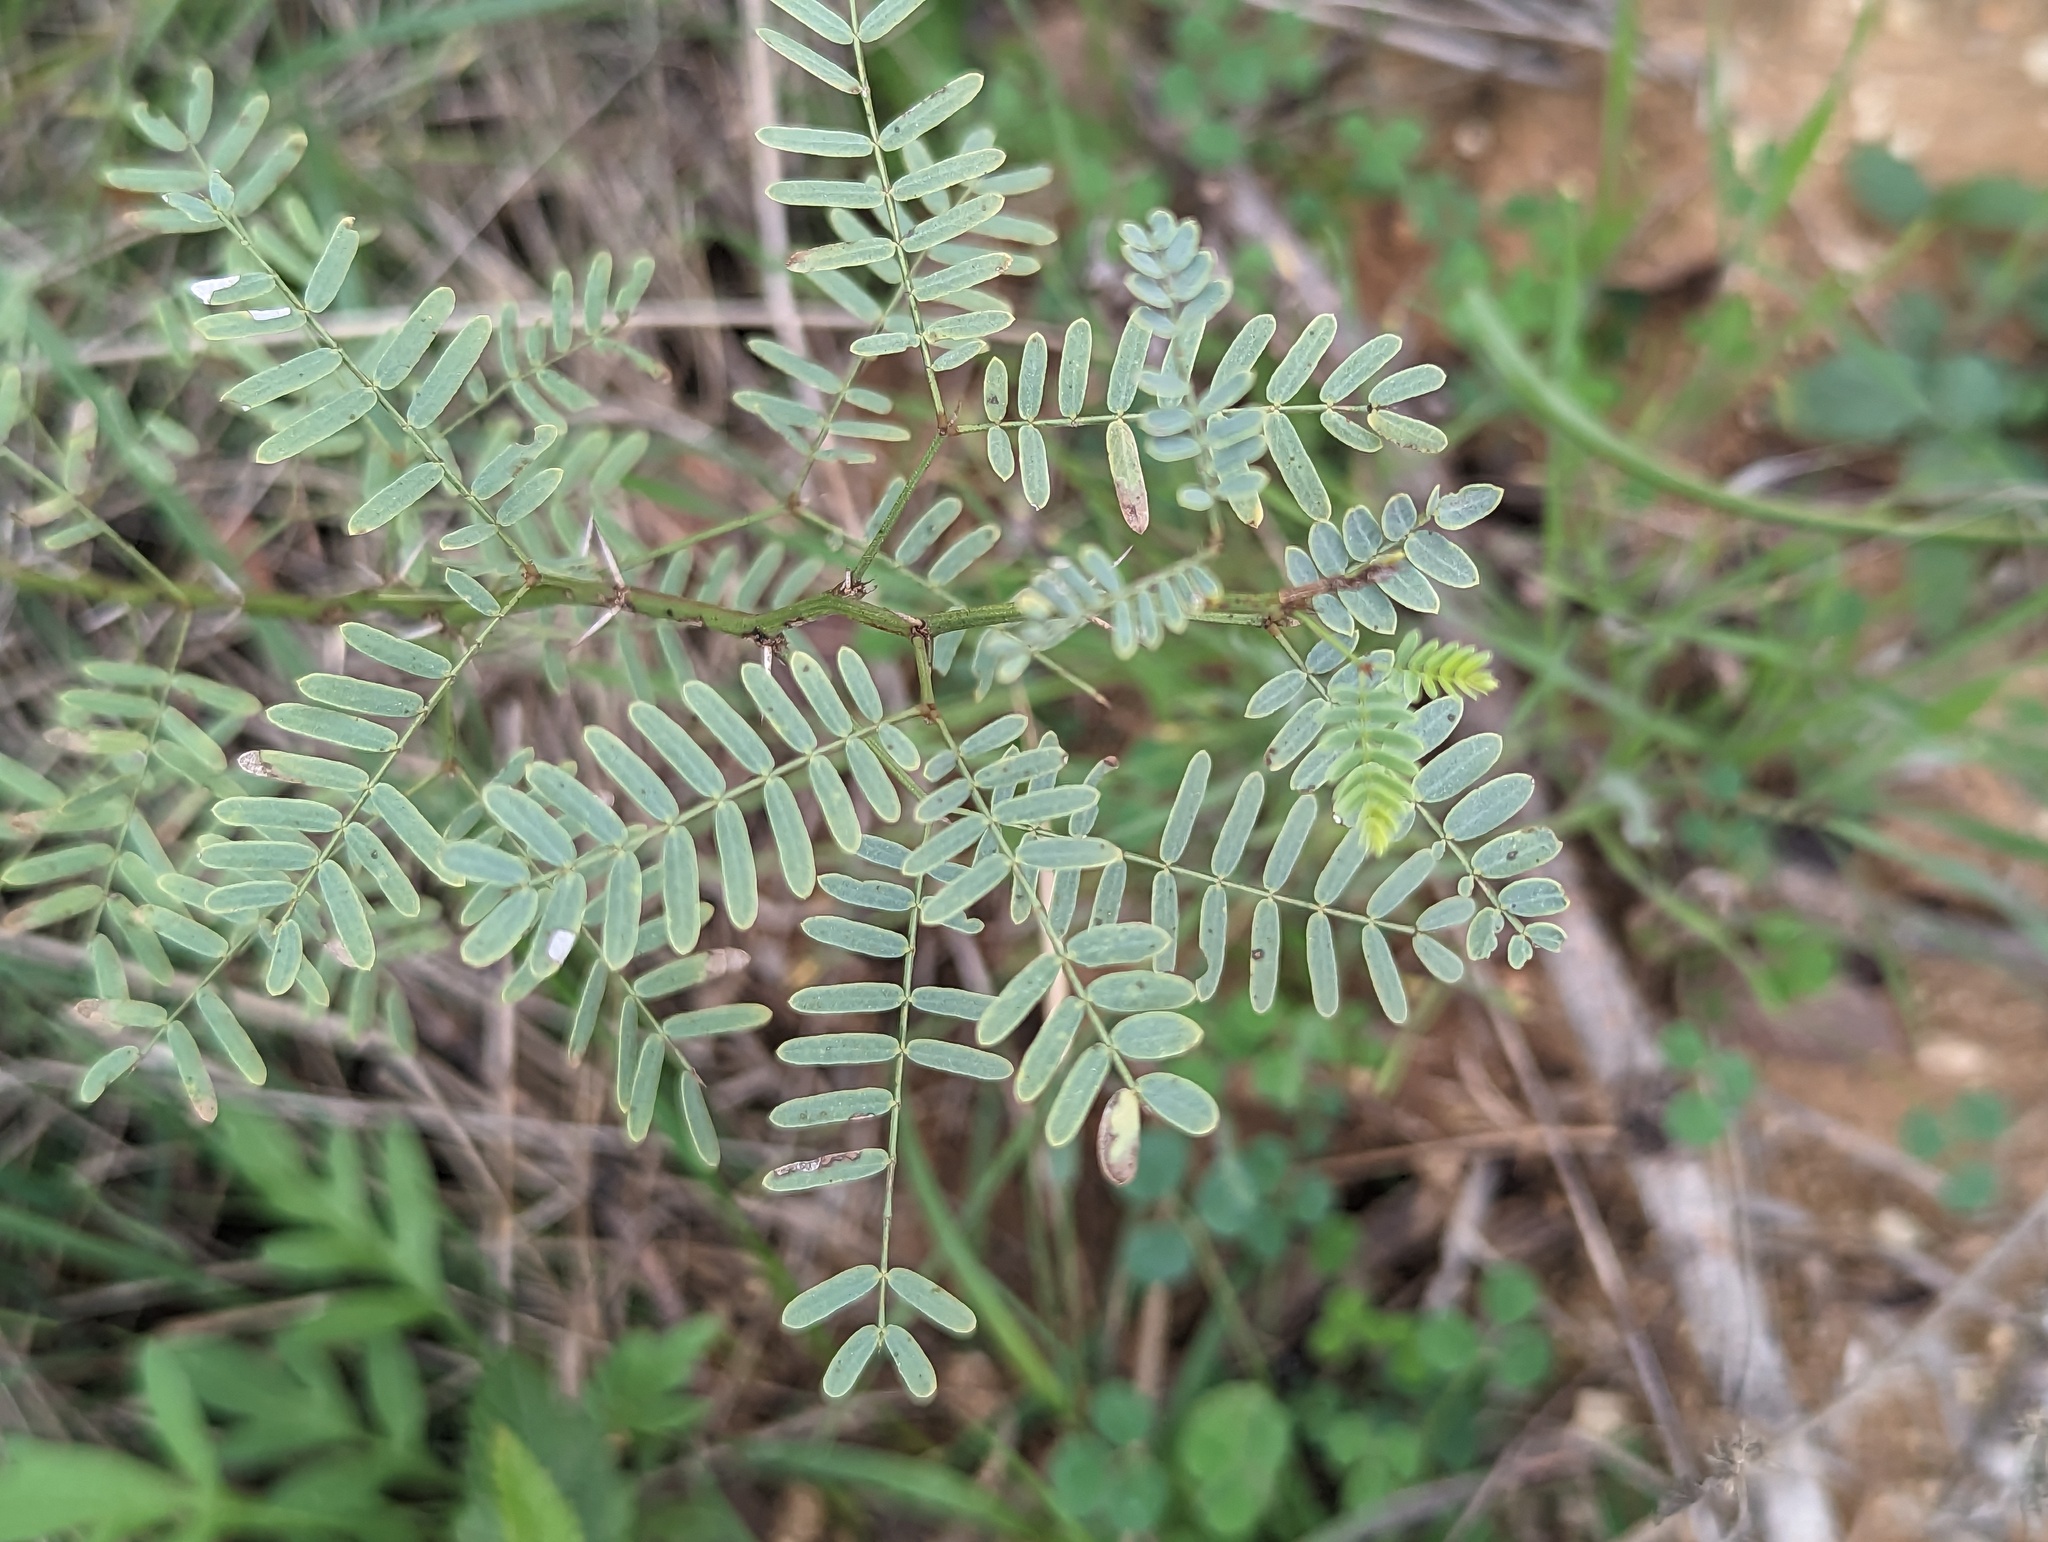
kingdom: Plantae
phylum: Tracheophyta
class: Magnoliopsida
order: Fabales
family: Fabaceae
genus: Prosopis
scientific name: Prosopis glandulosa
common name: Honey mesquite
